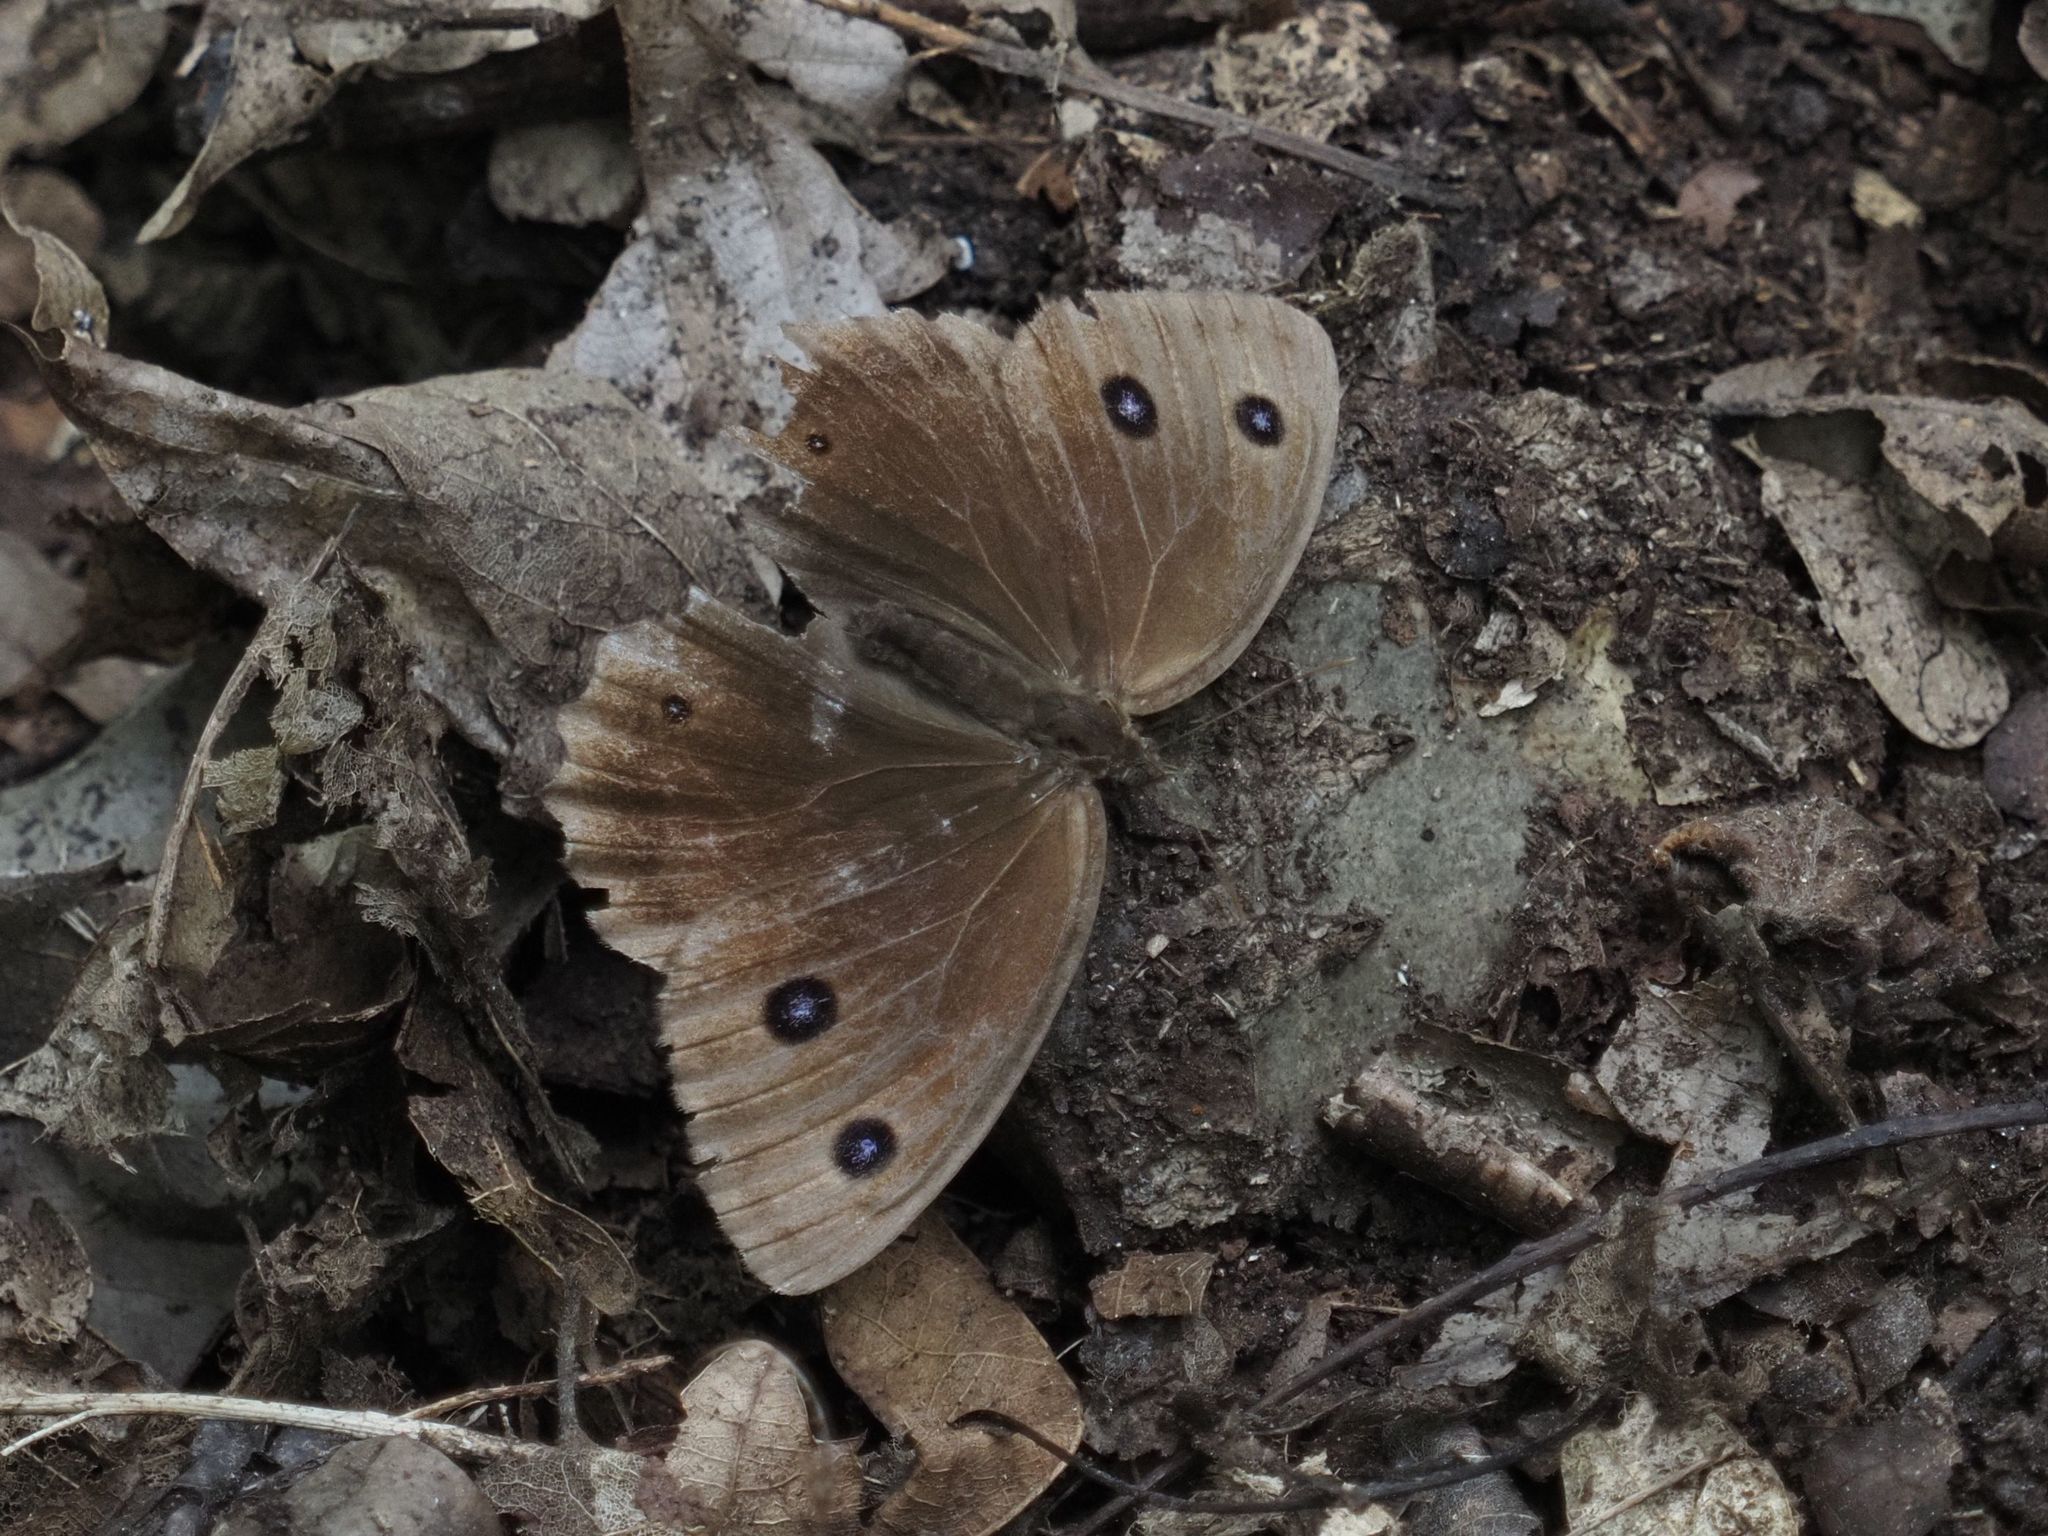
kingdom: Animalia
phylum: Arthropoda
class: Insecta
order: Lepidoptera
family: Nymphalidae
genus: Minois
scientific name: Minois dryas
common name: Dryad
